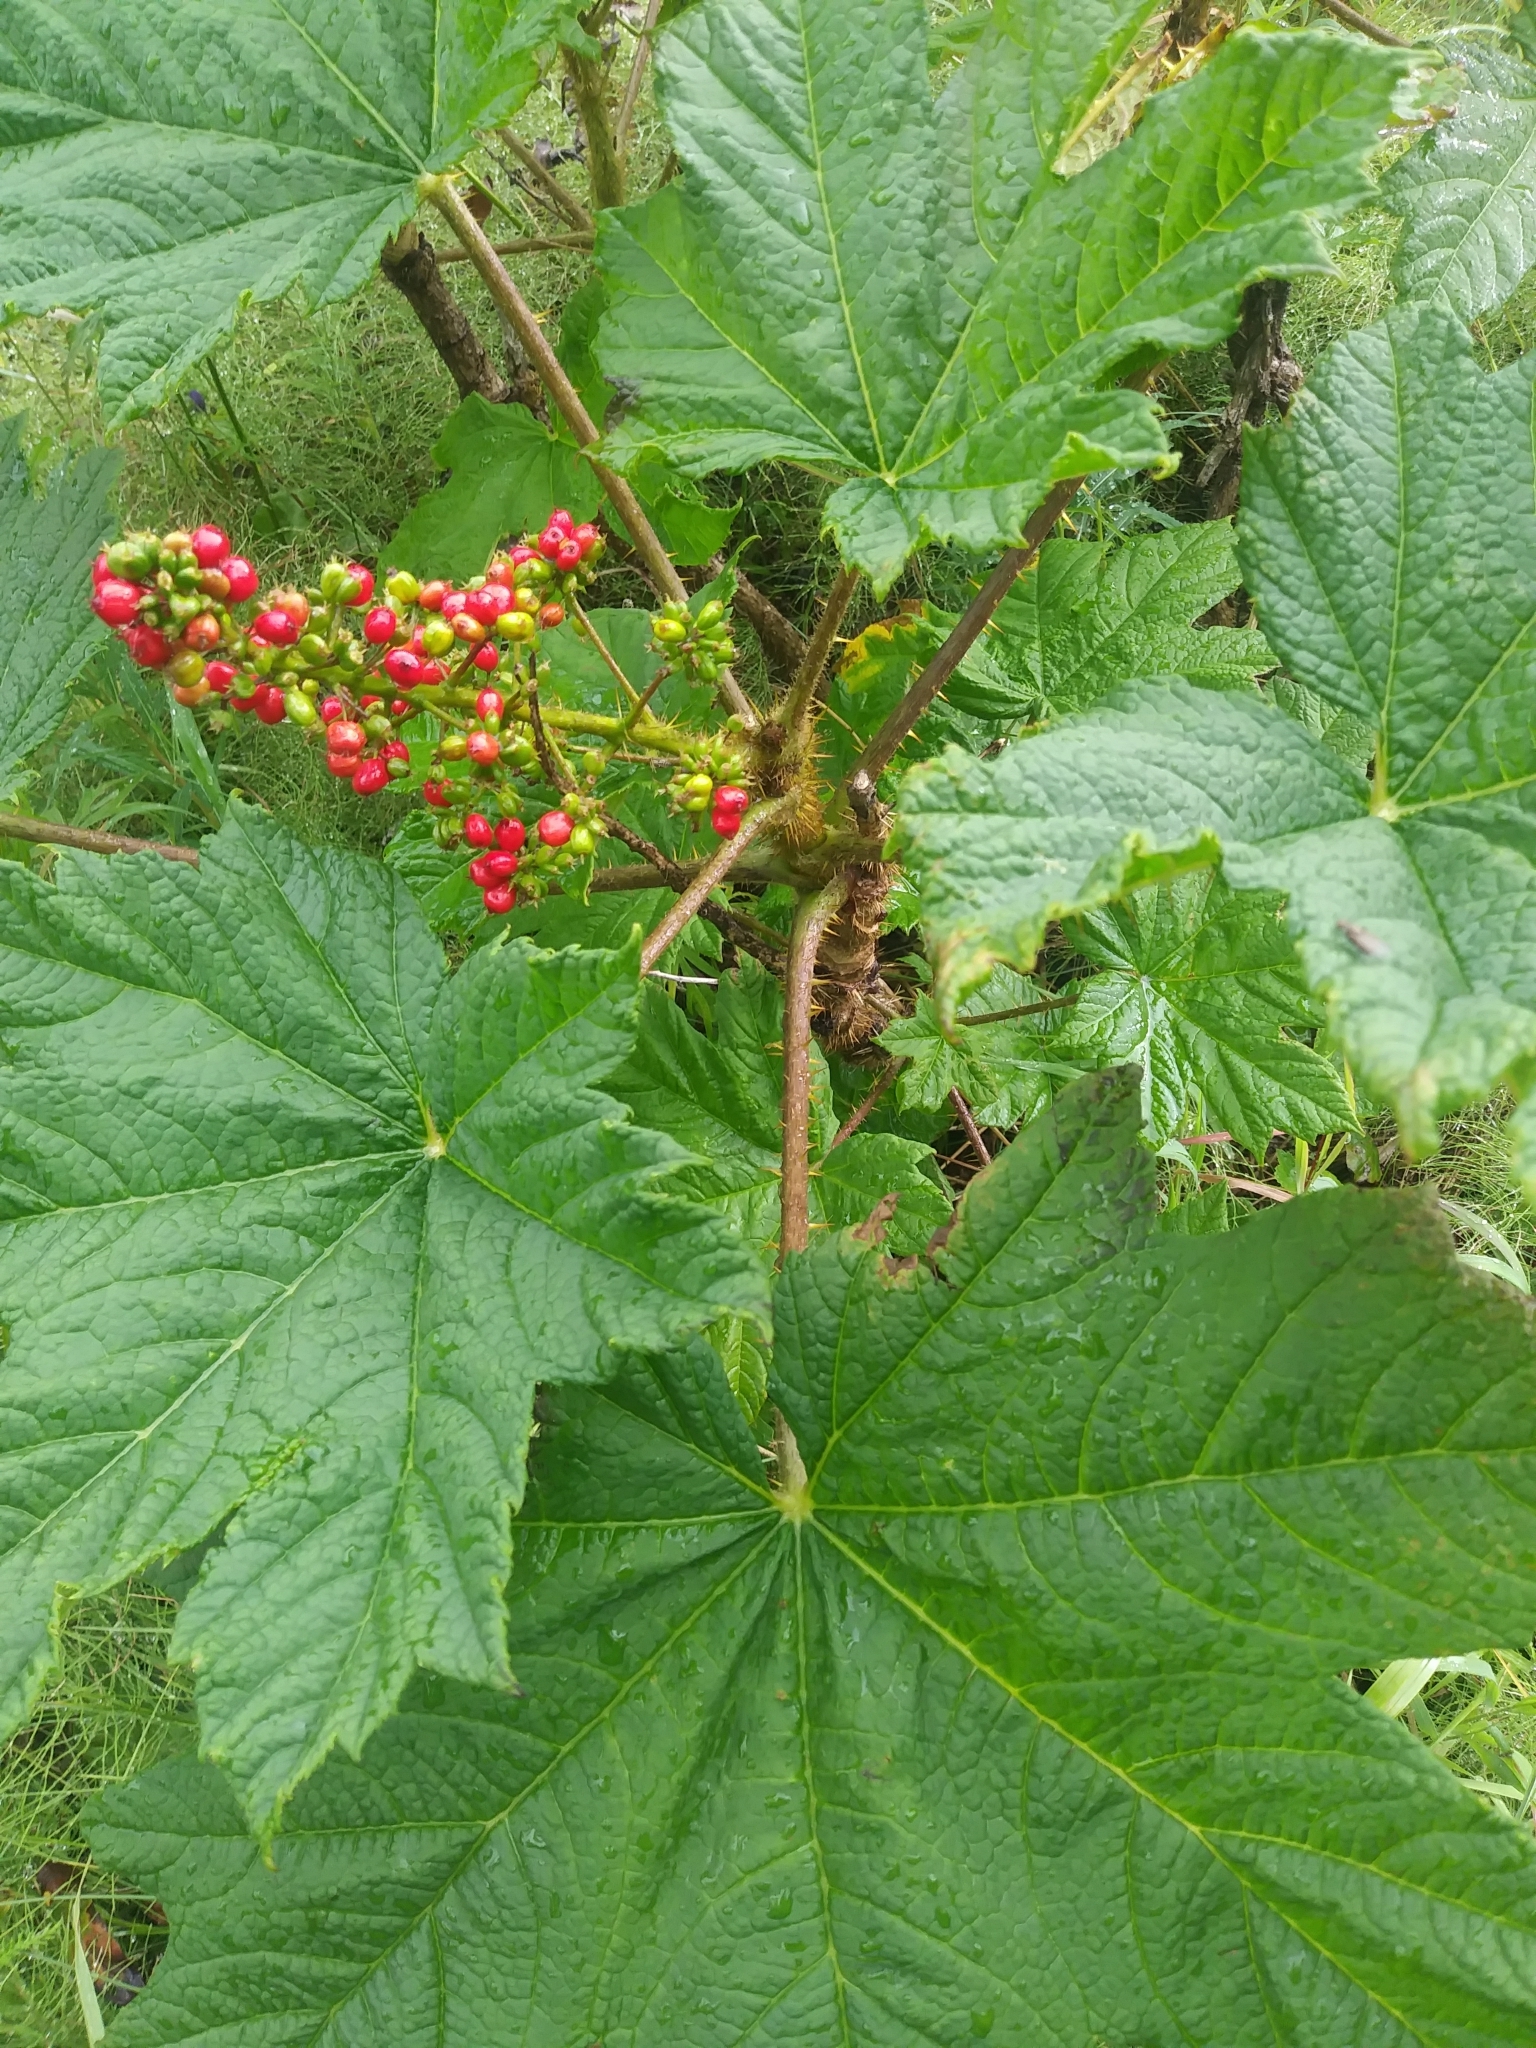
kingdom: Plantae
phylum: Tracheophyta
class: Magnoliopsida
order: Apiales
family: Araliaceae
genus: Oplopanax
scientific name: Oplopanax horridus
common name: Devil's walking-stick
